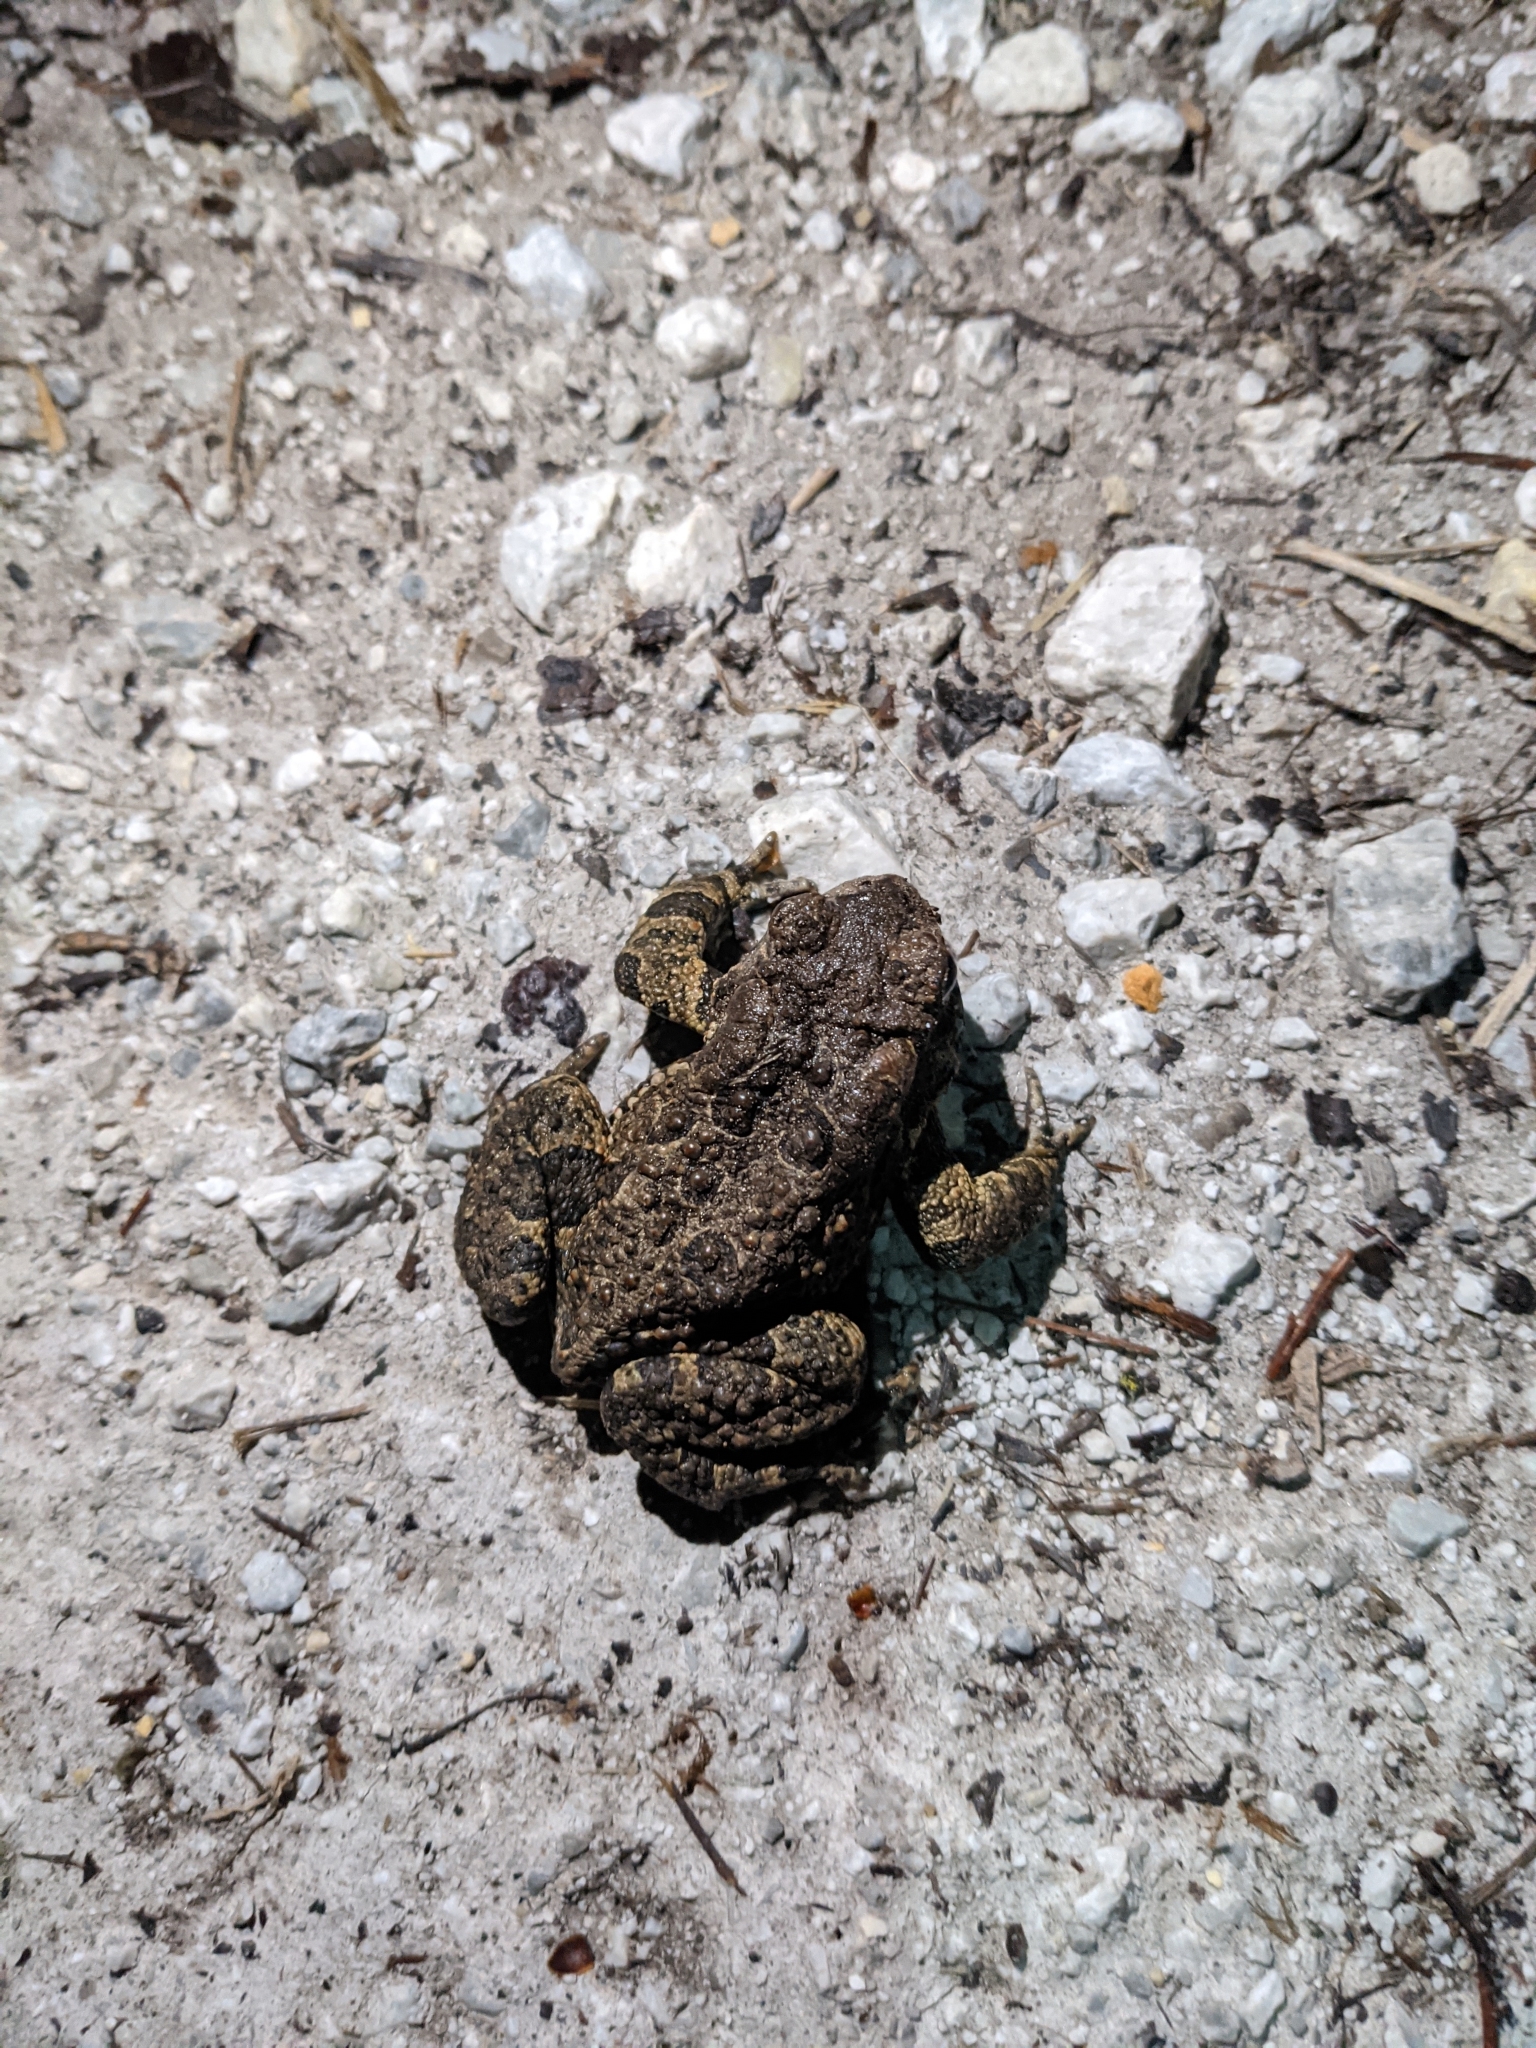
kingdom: Animalia
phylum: Chordata
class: Amphibia
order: Anura
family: Bufonidae
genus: Anaxyrus
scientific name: Anaxyrus americanus
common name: American toad
